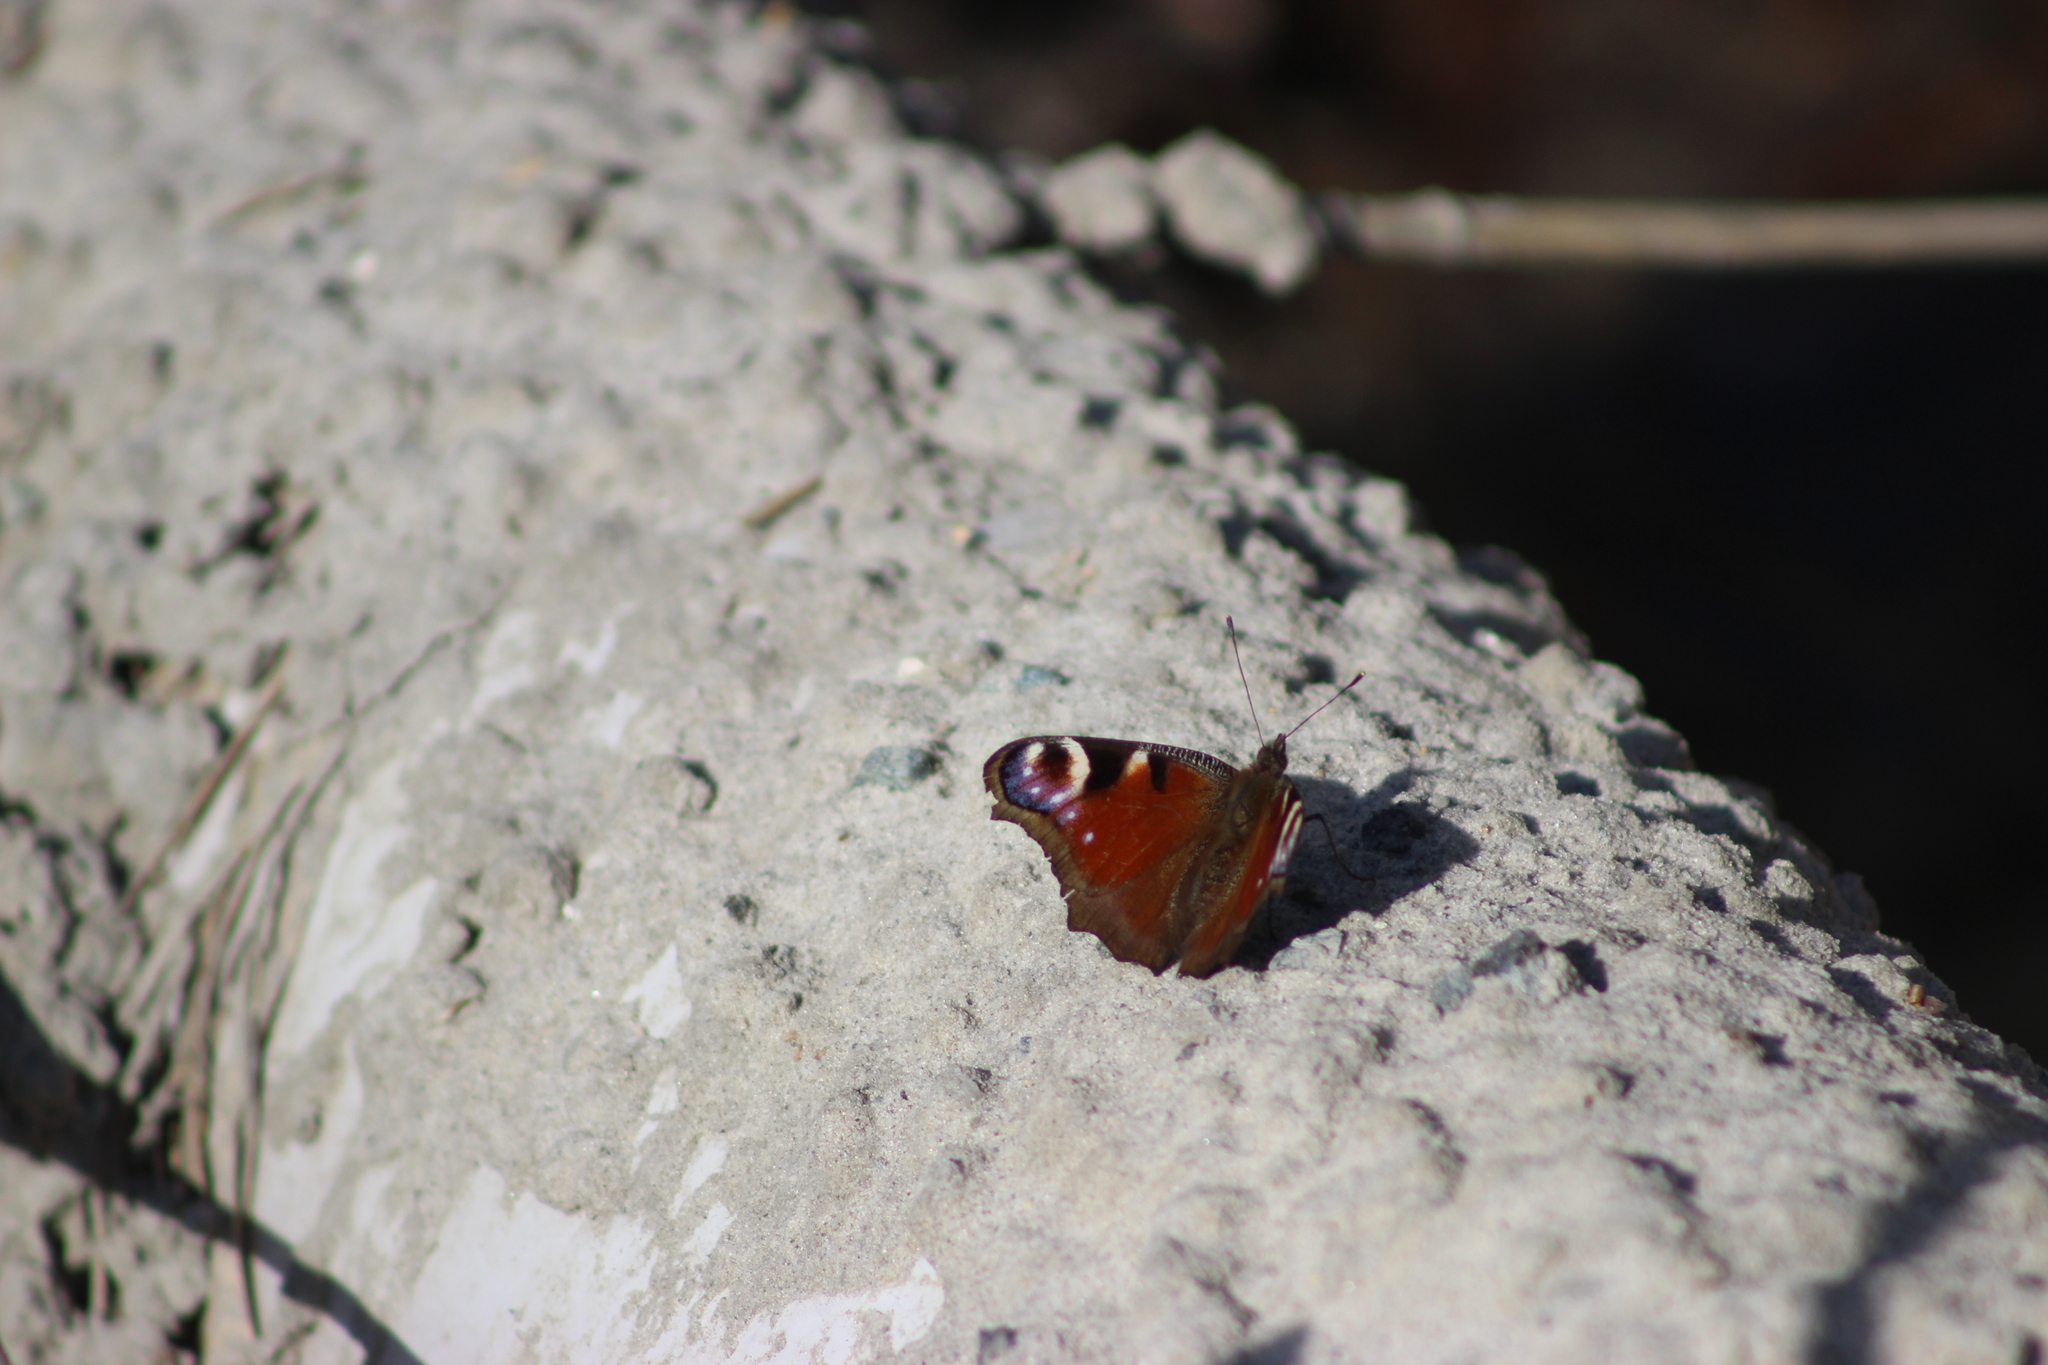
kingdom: Animalia
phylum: Arthropoda
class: Insecta
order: Lepidoptera
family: Nymphalidae
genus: Aglais
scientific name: Aglais io
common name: Peacock
